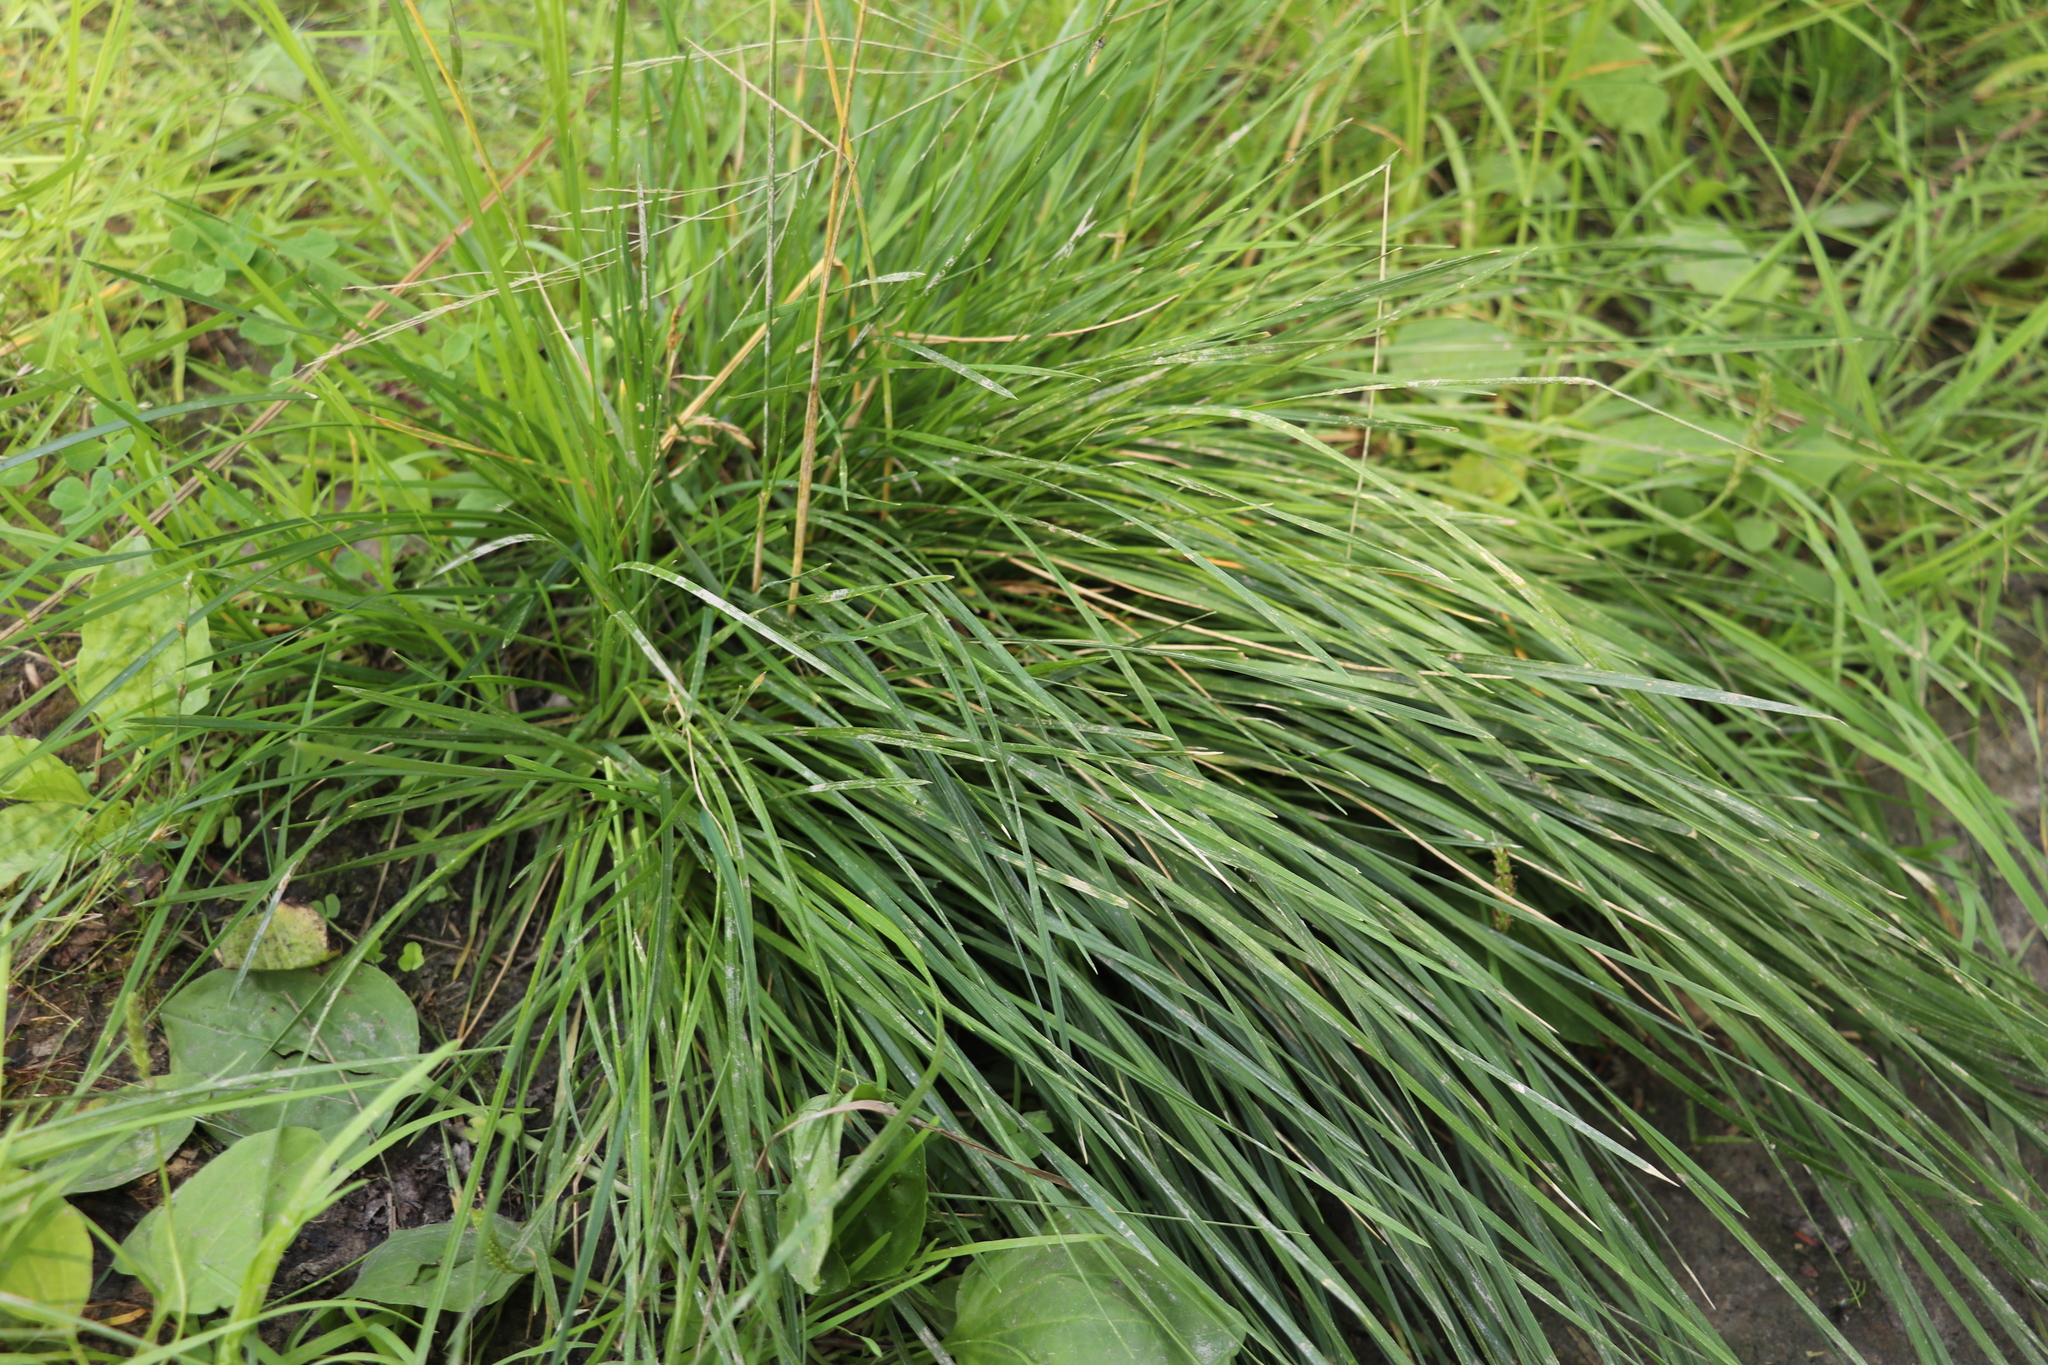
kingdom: Plantae
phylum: Tracheophyta
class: Liliopsida
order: Poales
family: Poaceae
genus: Deschampsia
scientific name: Deschampsia cespitosa
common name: Tufted hair-grass
